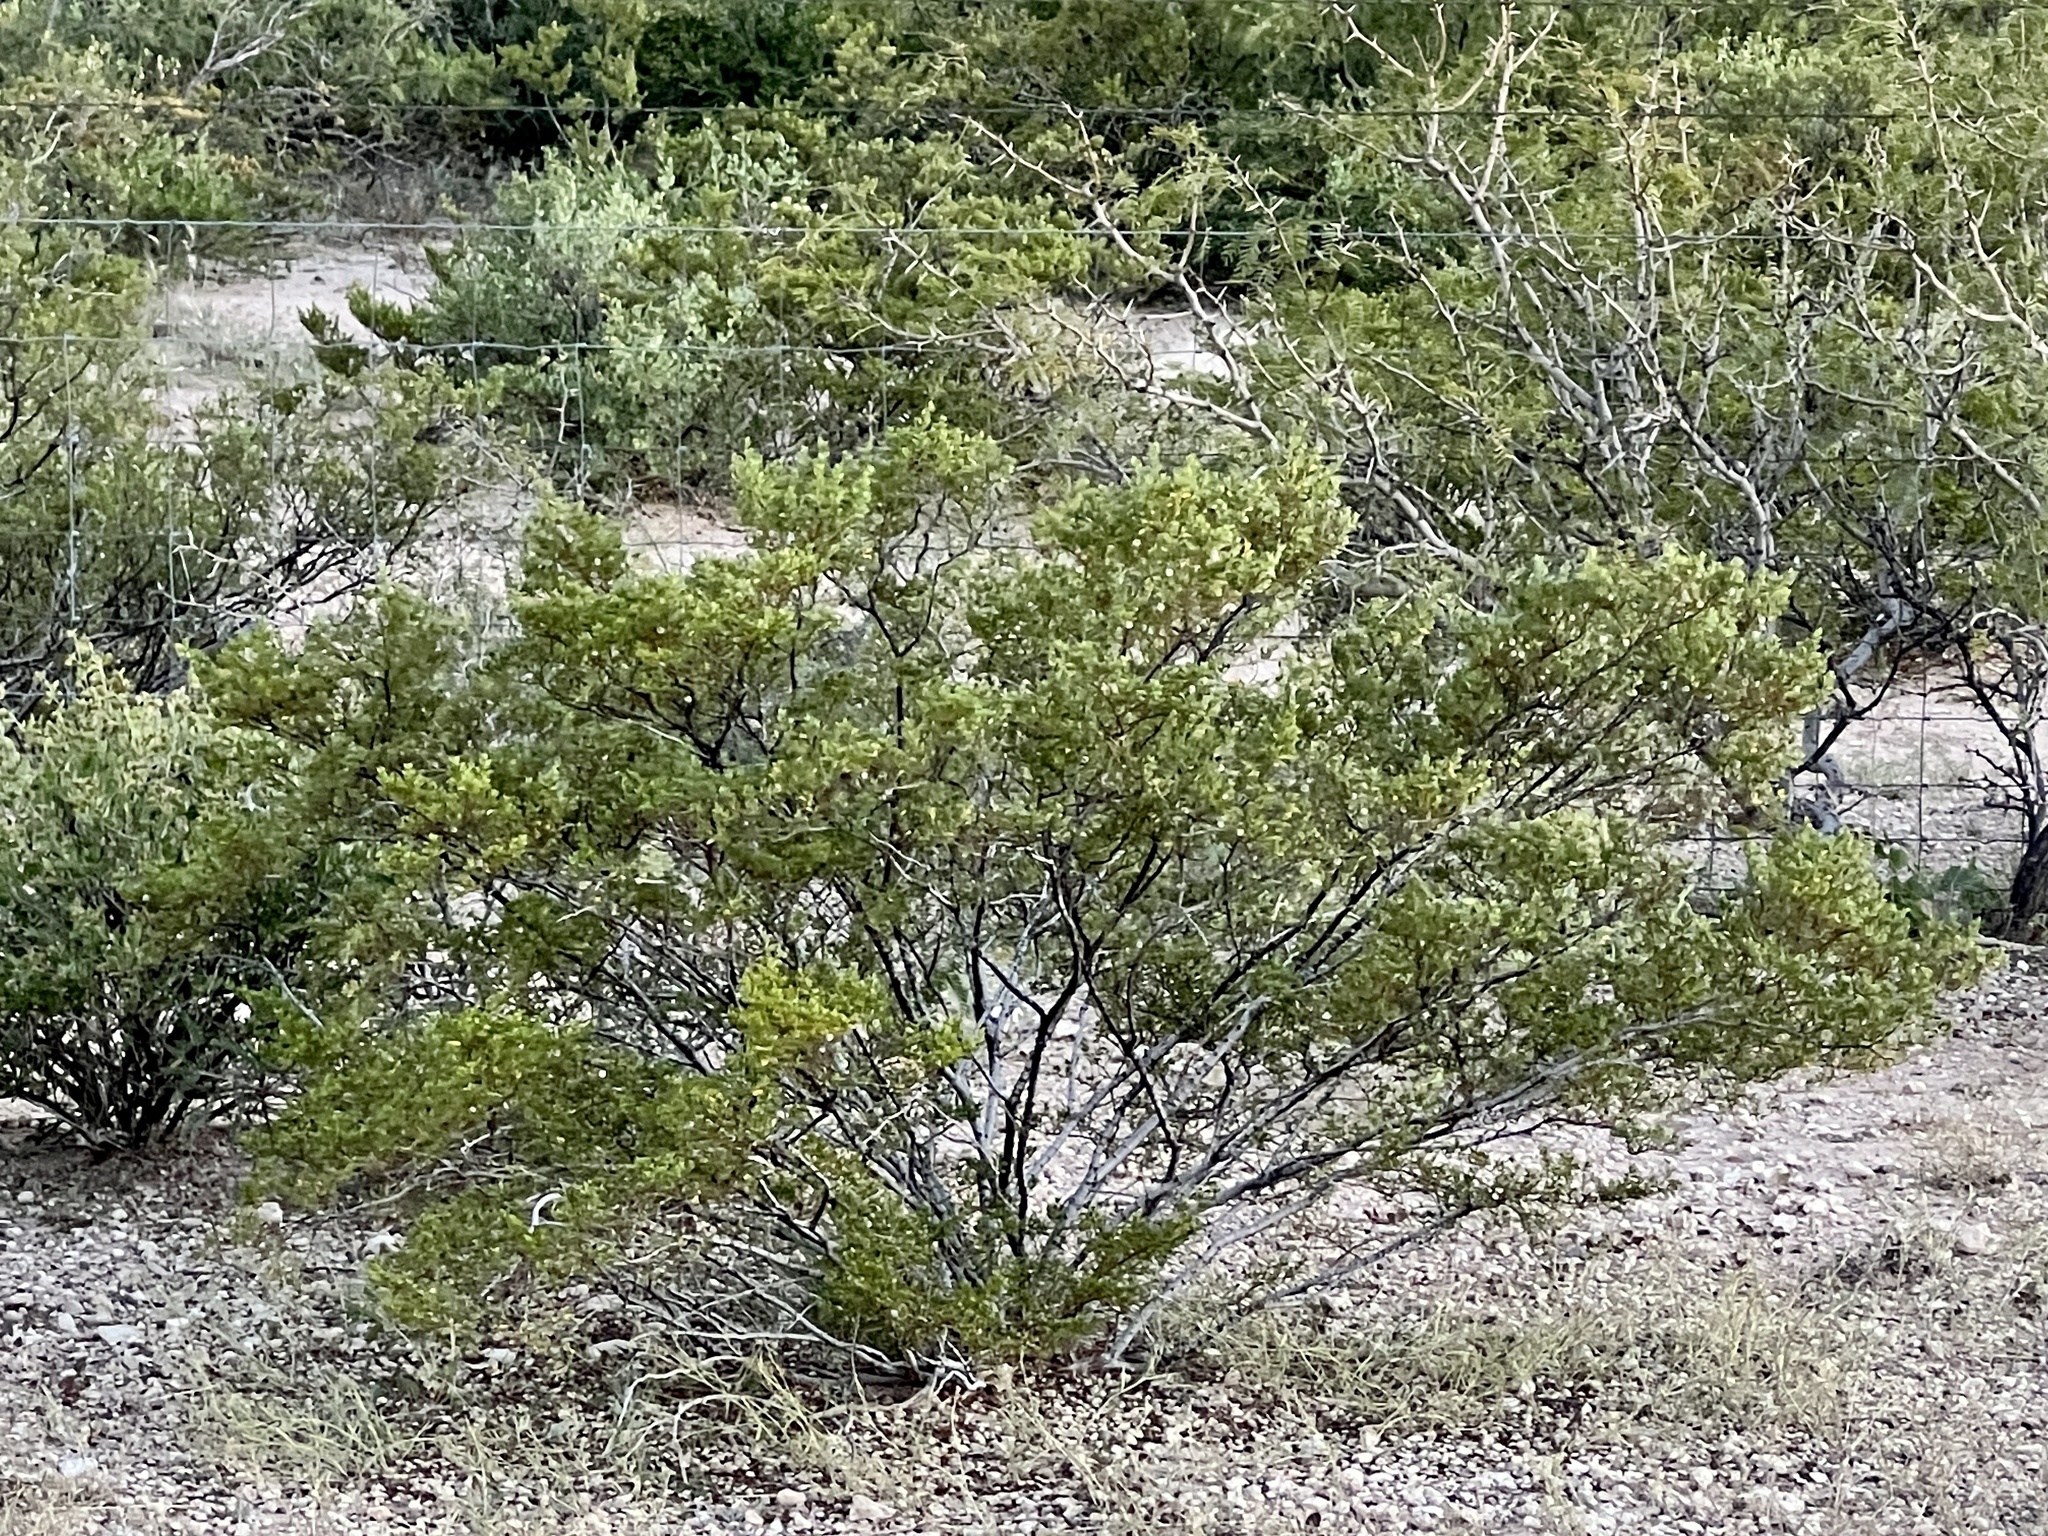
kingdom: Plantae
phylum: Tracheophyta
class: Magnoliopsida
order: Zygophyllales
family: Zygophyllaceae
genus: Larrea
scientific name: Larrea tridentata
